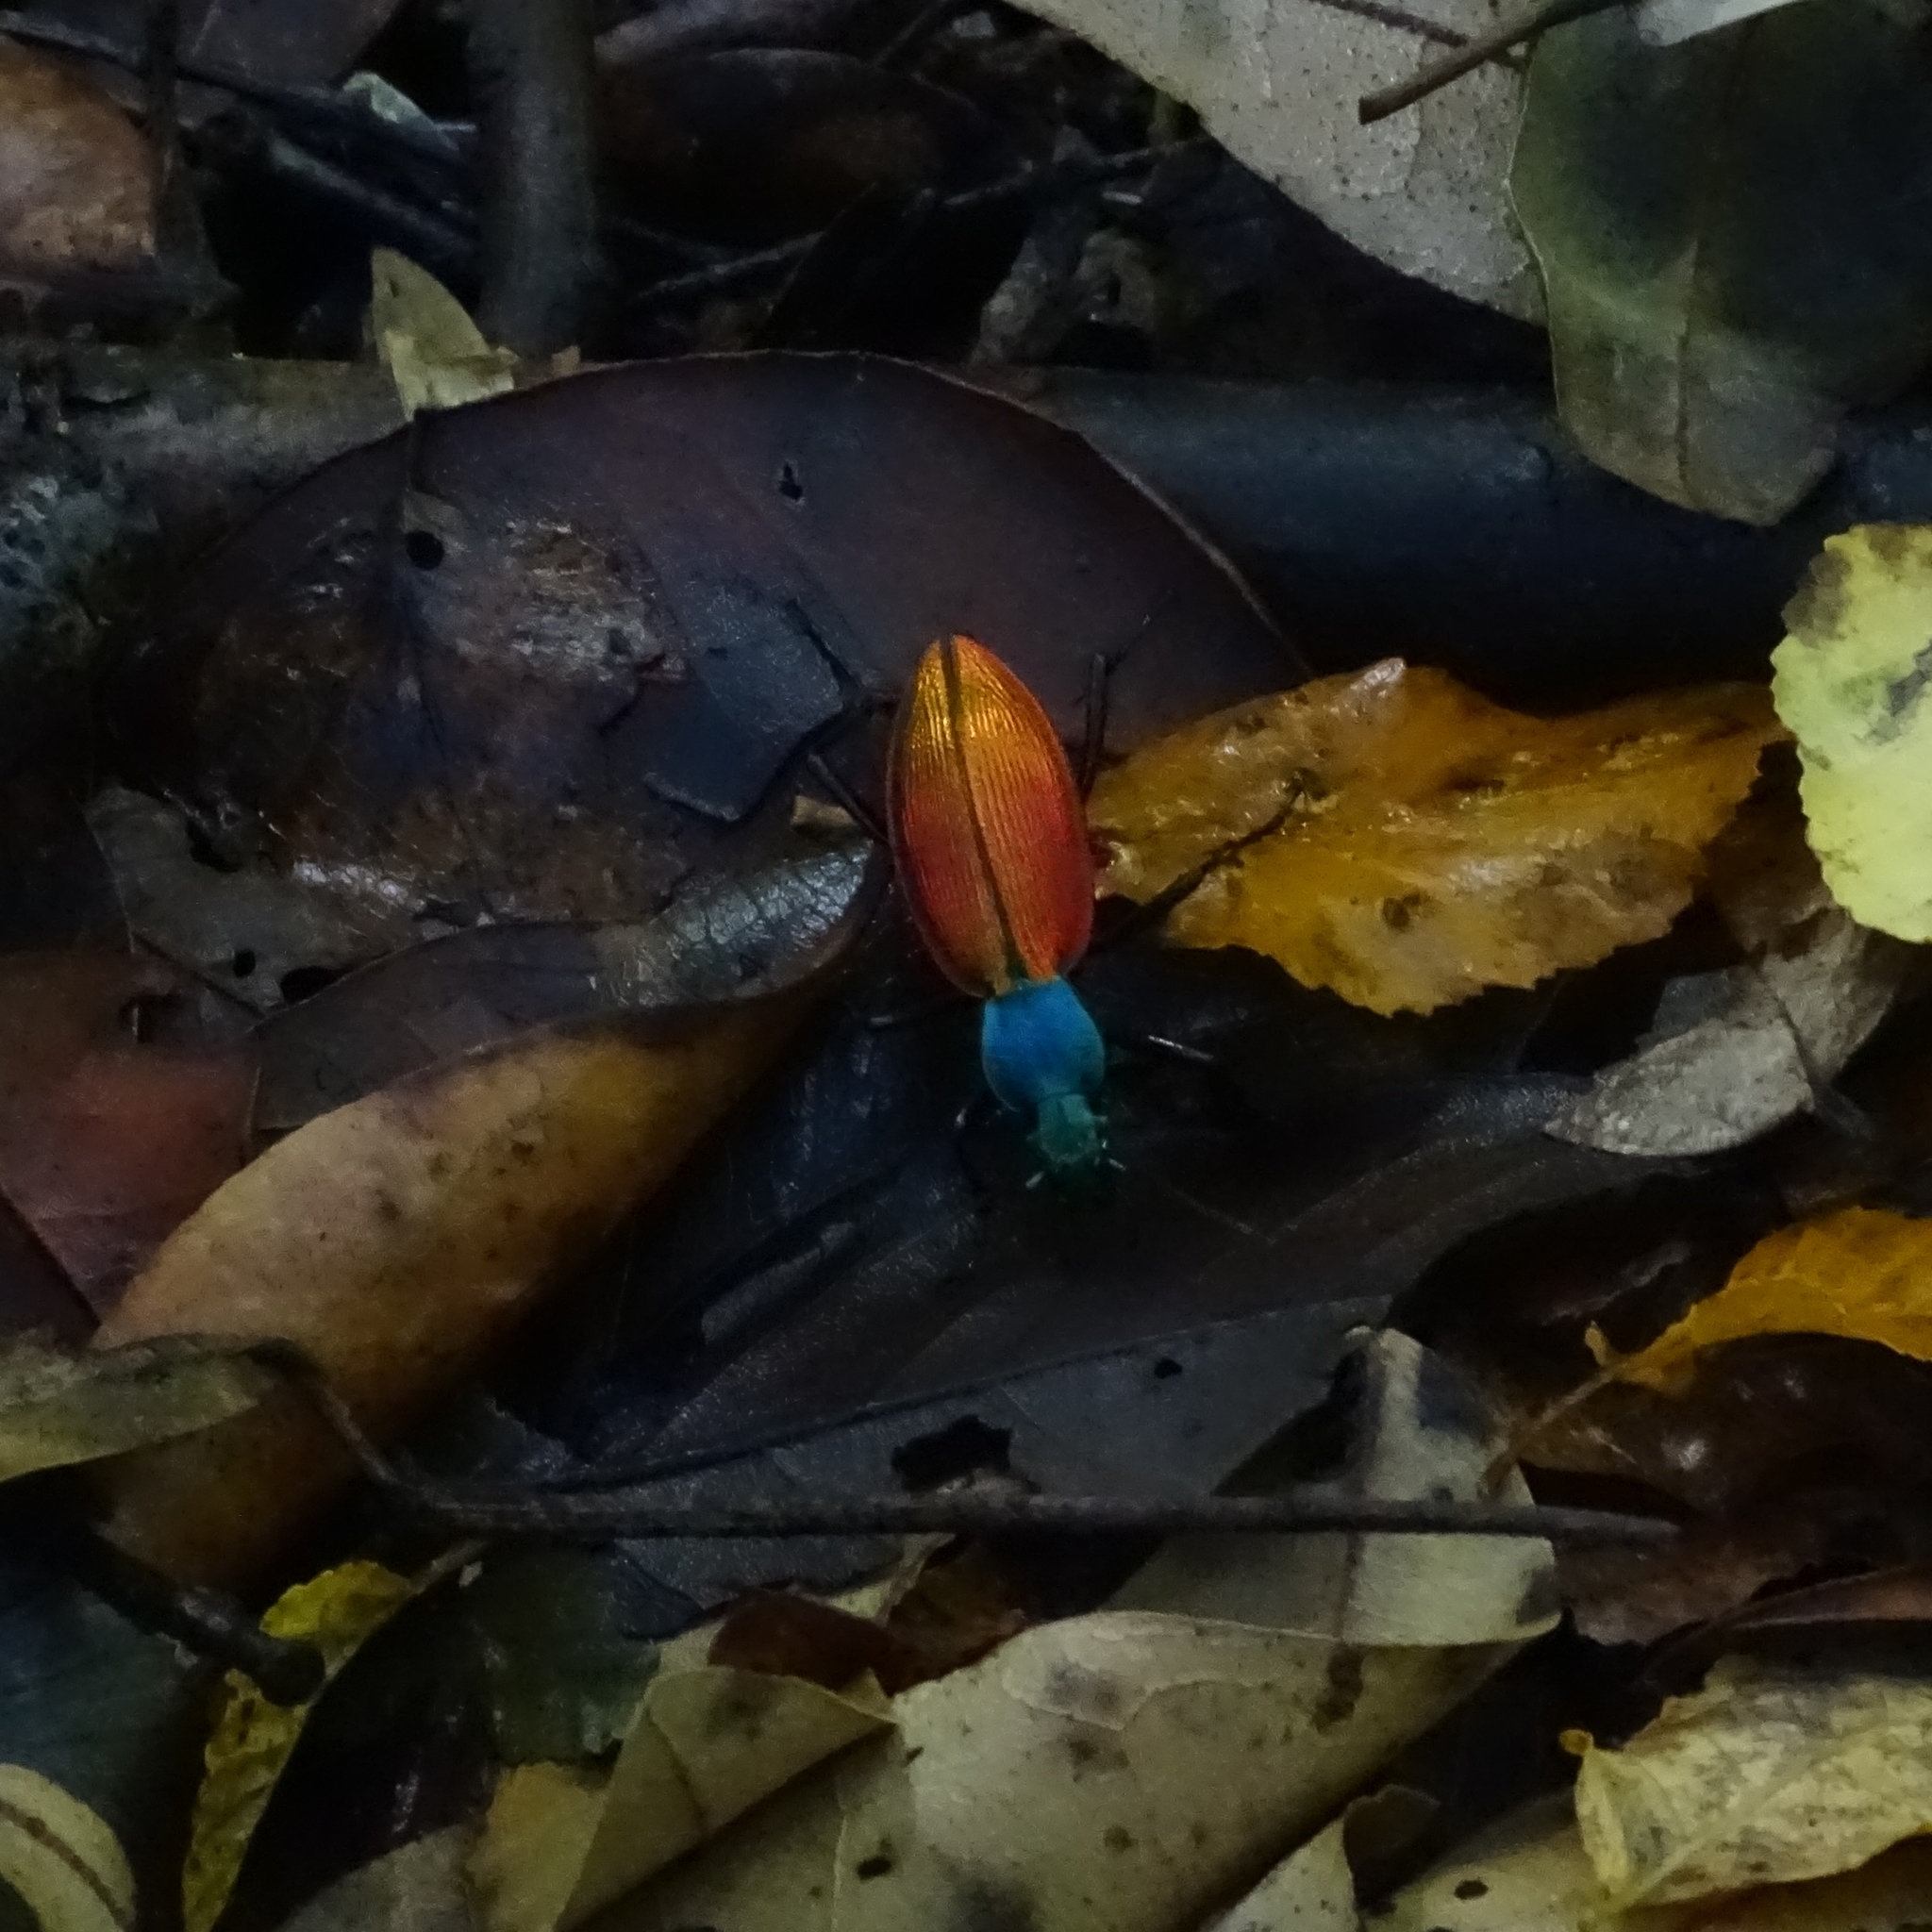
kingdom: Animalia
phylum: Arthropoda
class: Insecta
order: Coleoptera
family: Carabidae
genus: Ceroglossus
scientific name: Ceroglossus chilensis
